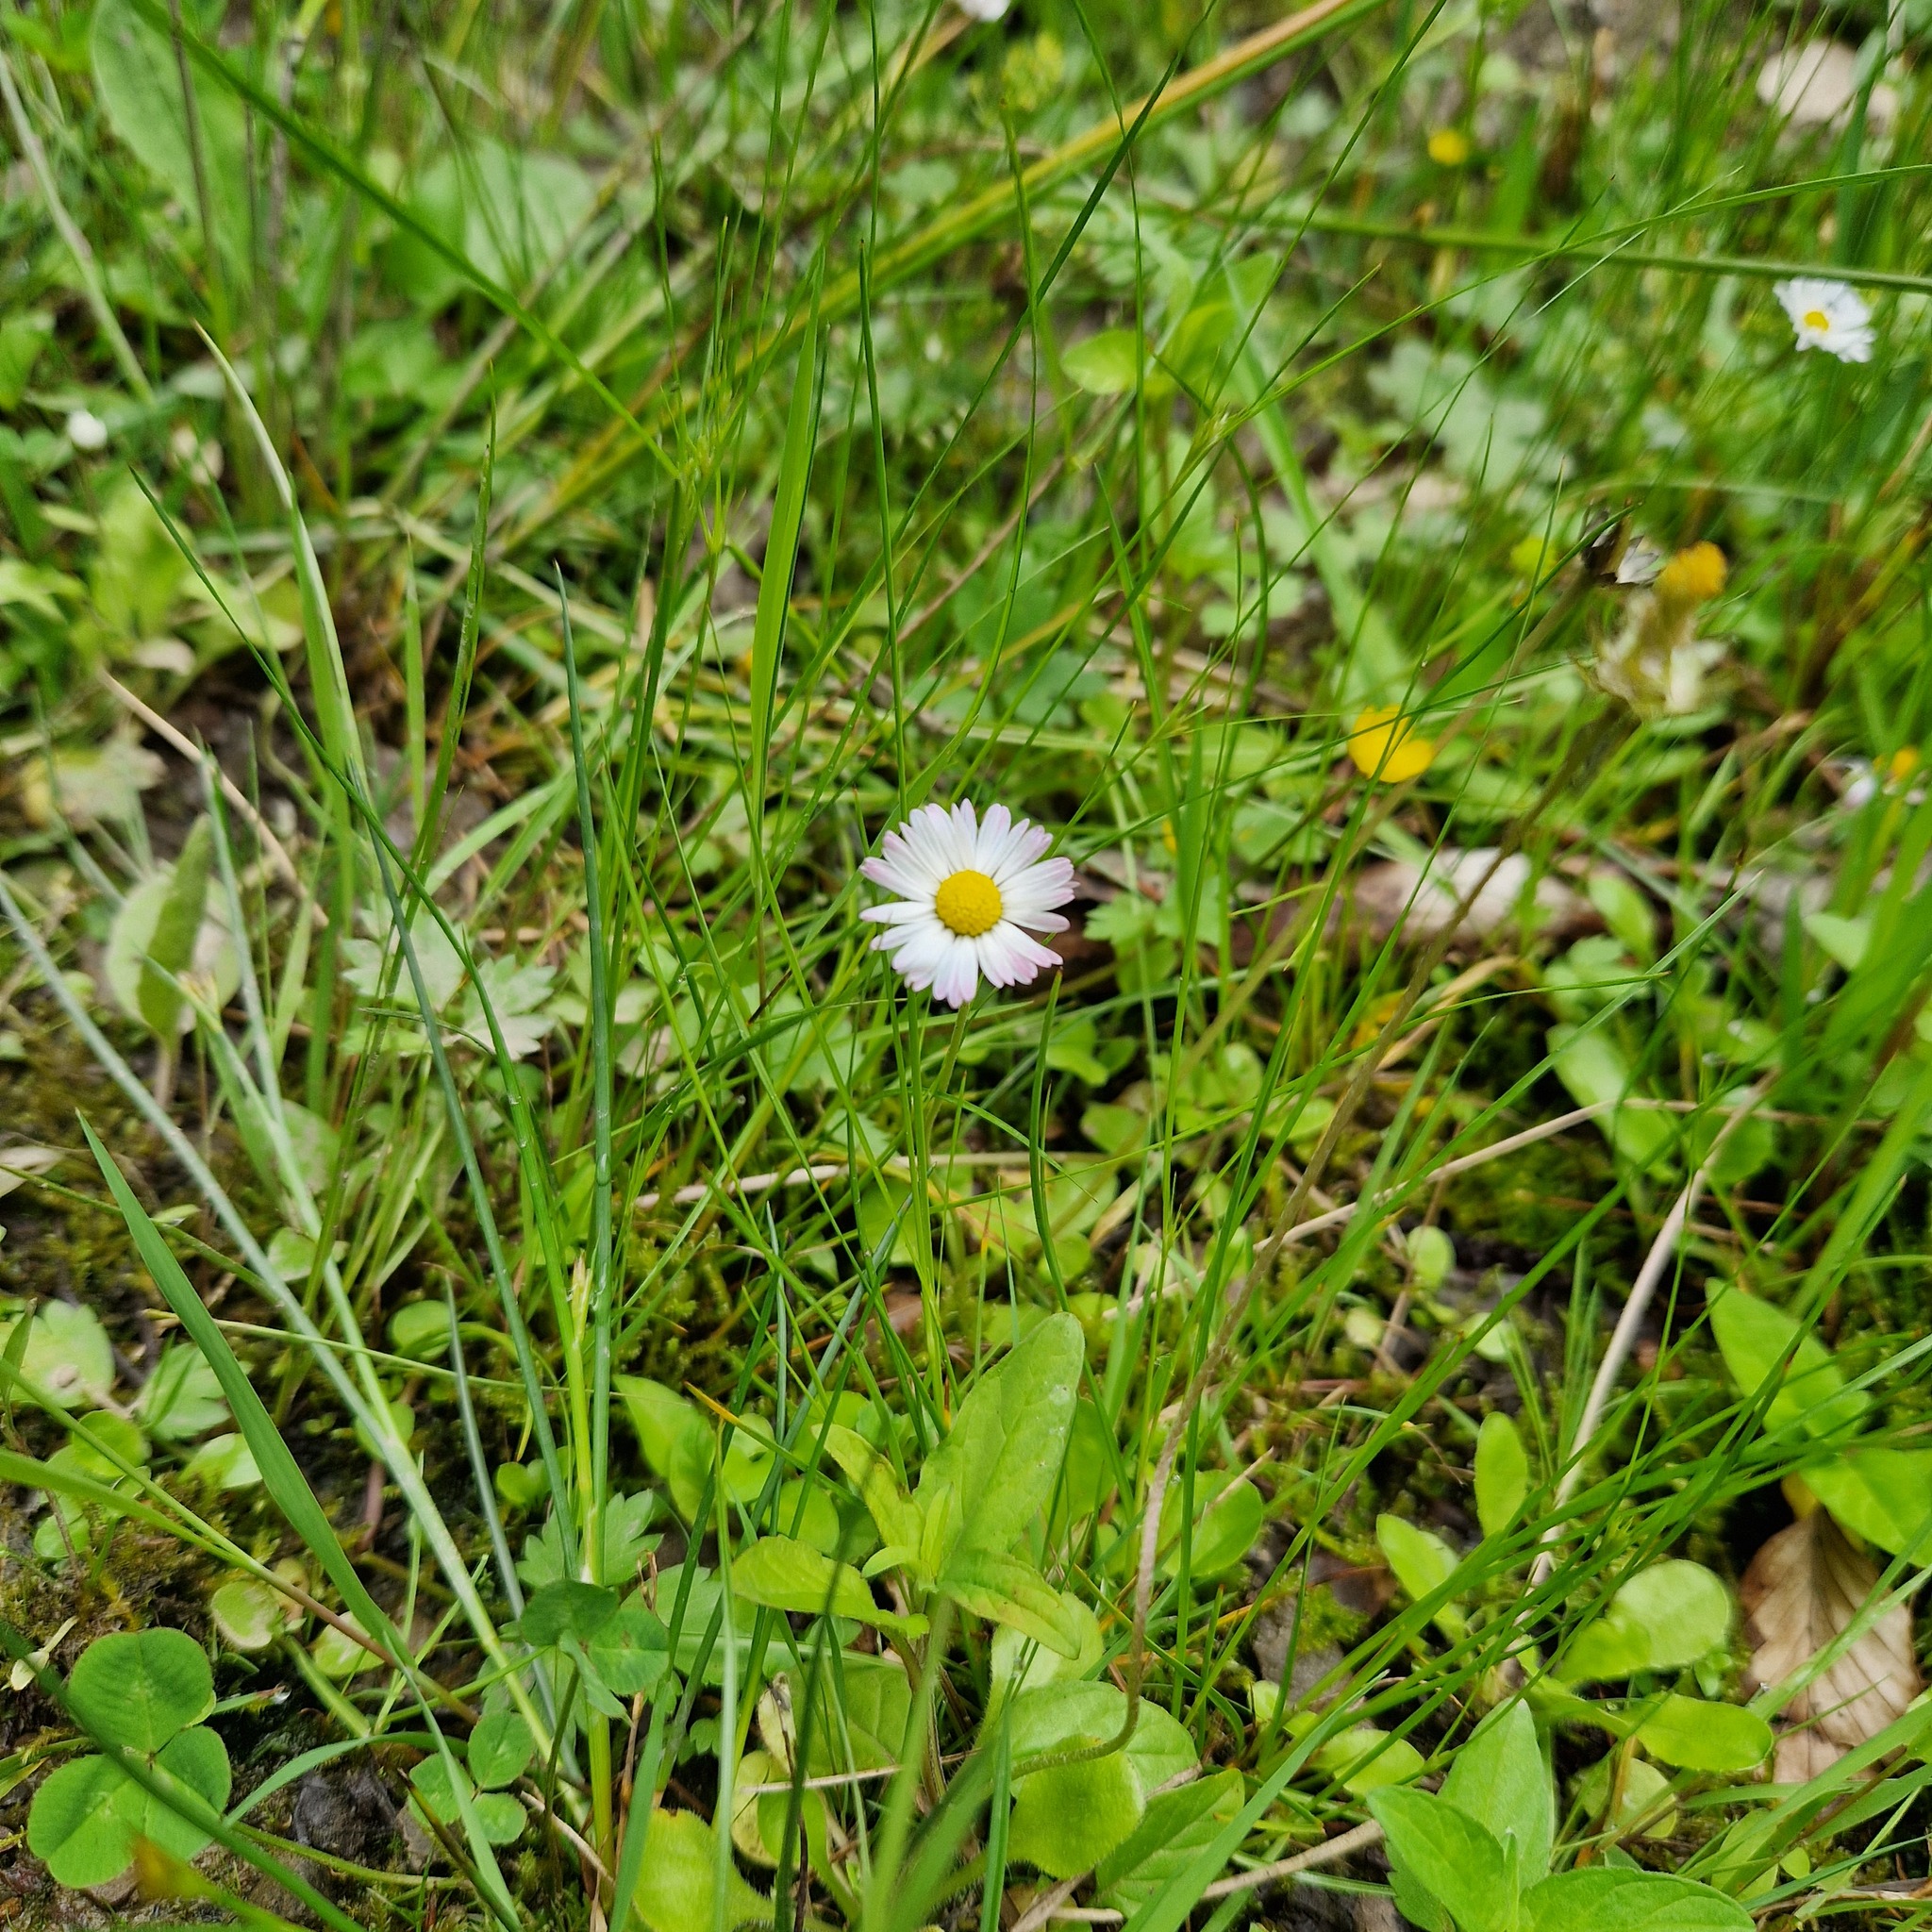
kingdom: Plantae
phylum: Tracheophyta
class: Magnoliopsida
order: Asterales
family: Asteraceae
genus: Bellis
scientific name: Bellis perennis
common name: Lawndaisy
